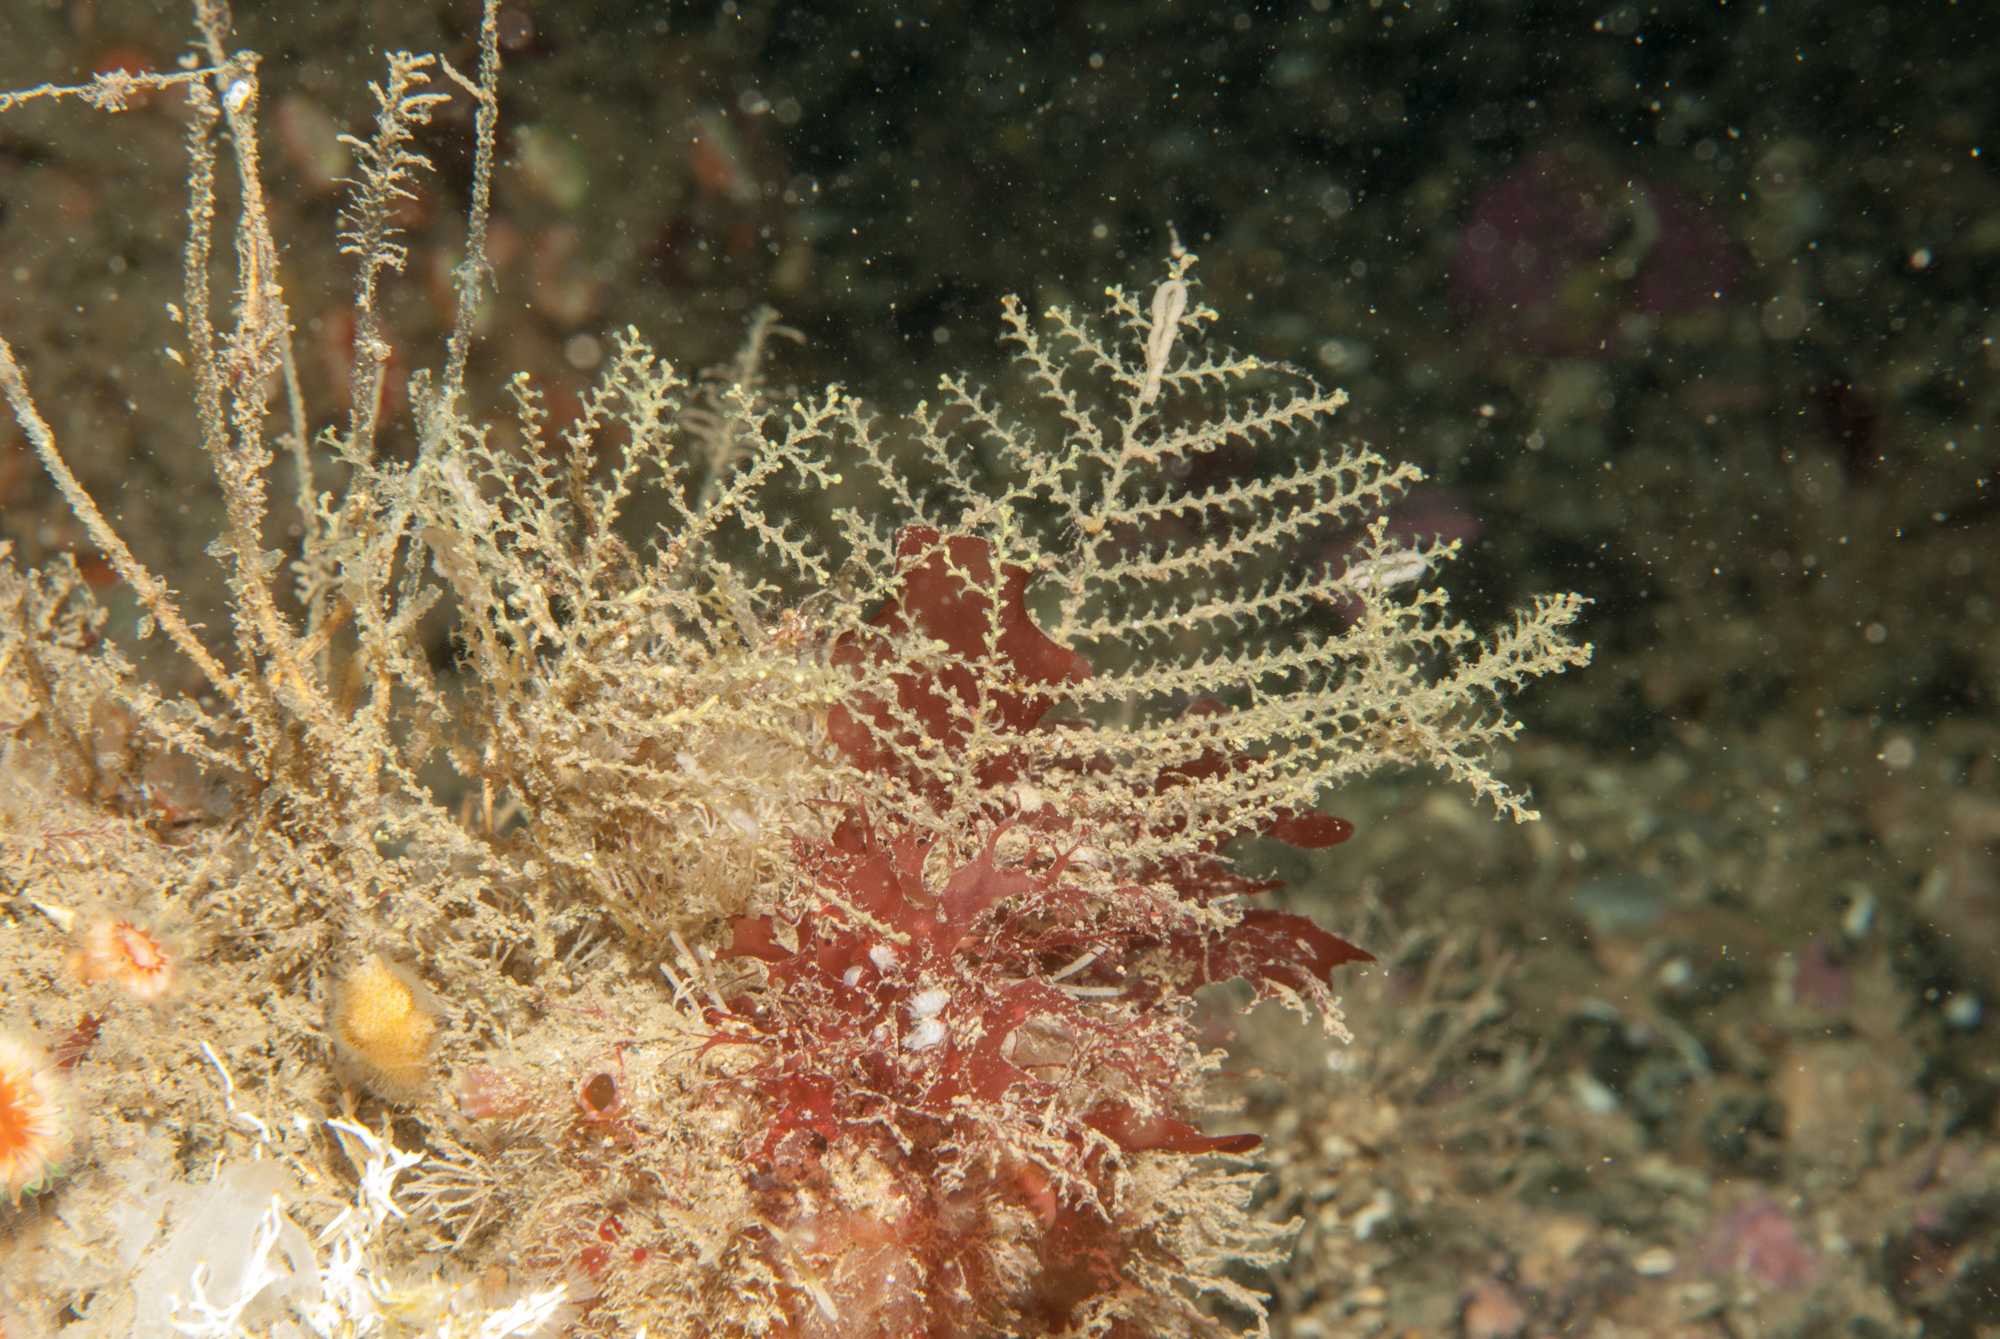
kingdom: Animalia
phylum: Cnidaria
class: Hydrozoa
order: Leptothecata
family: Sertularellidae
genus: Sertularella
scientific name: Sertularella gayi
